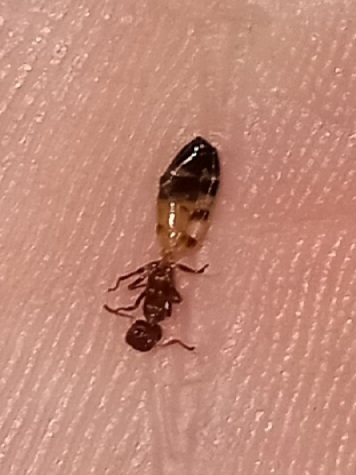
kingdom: Animalia
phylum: Arthropoda
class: Insecta
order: Hymenoptera
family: Formicidae
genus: Colobopsis
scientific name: Colobopsis impressa
